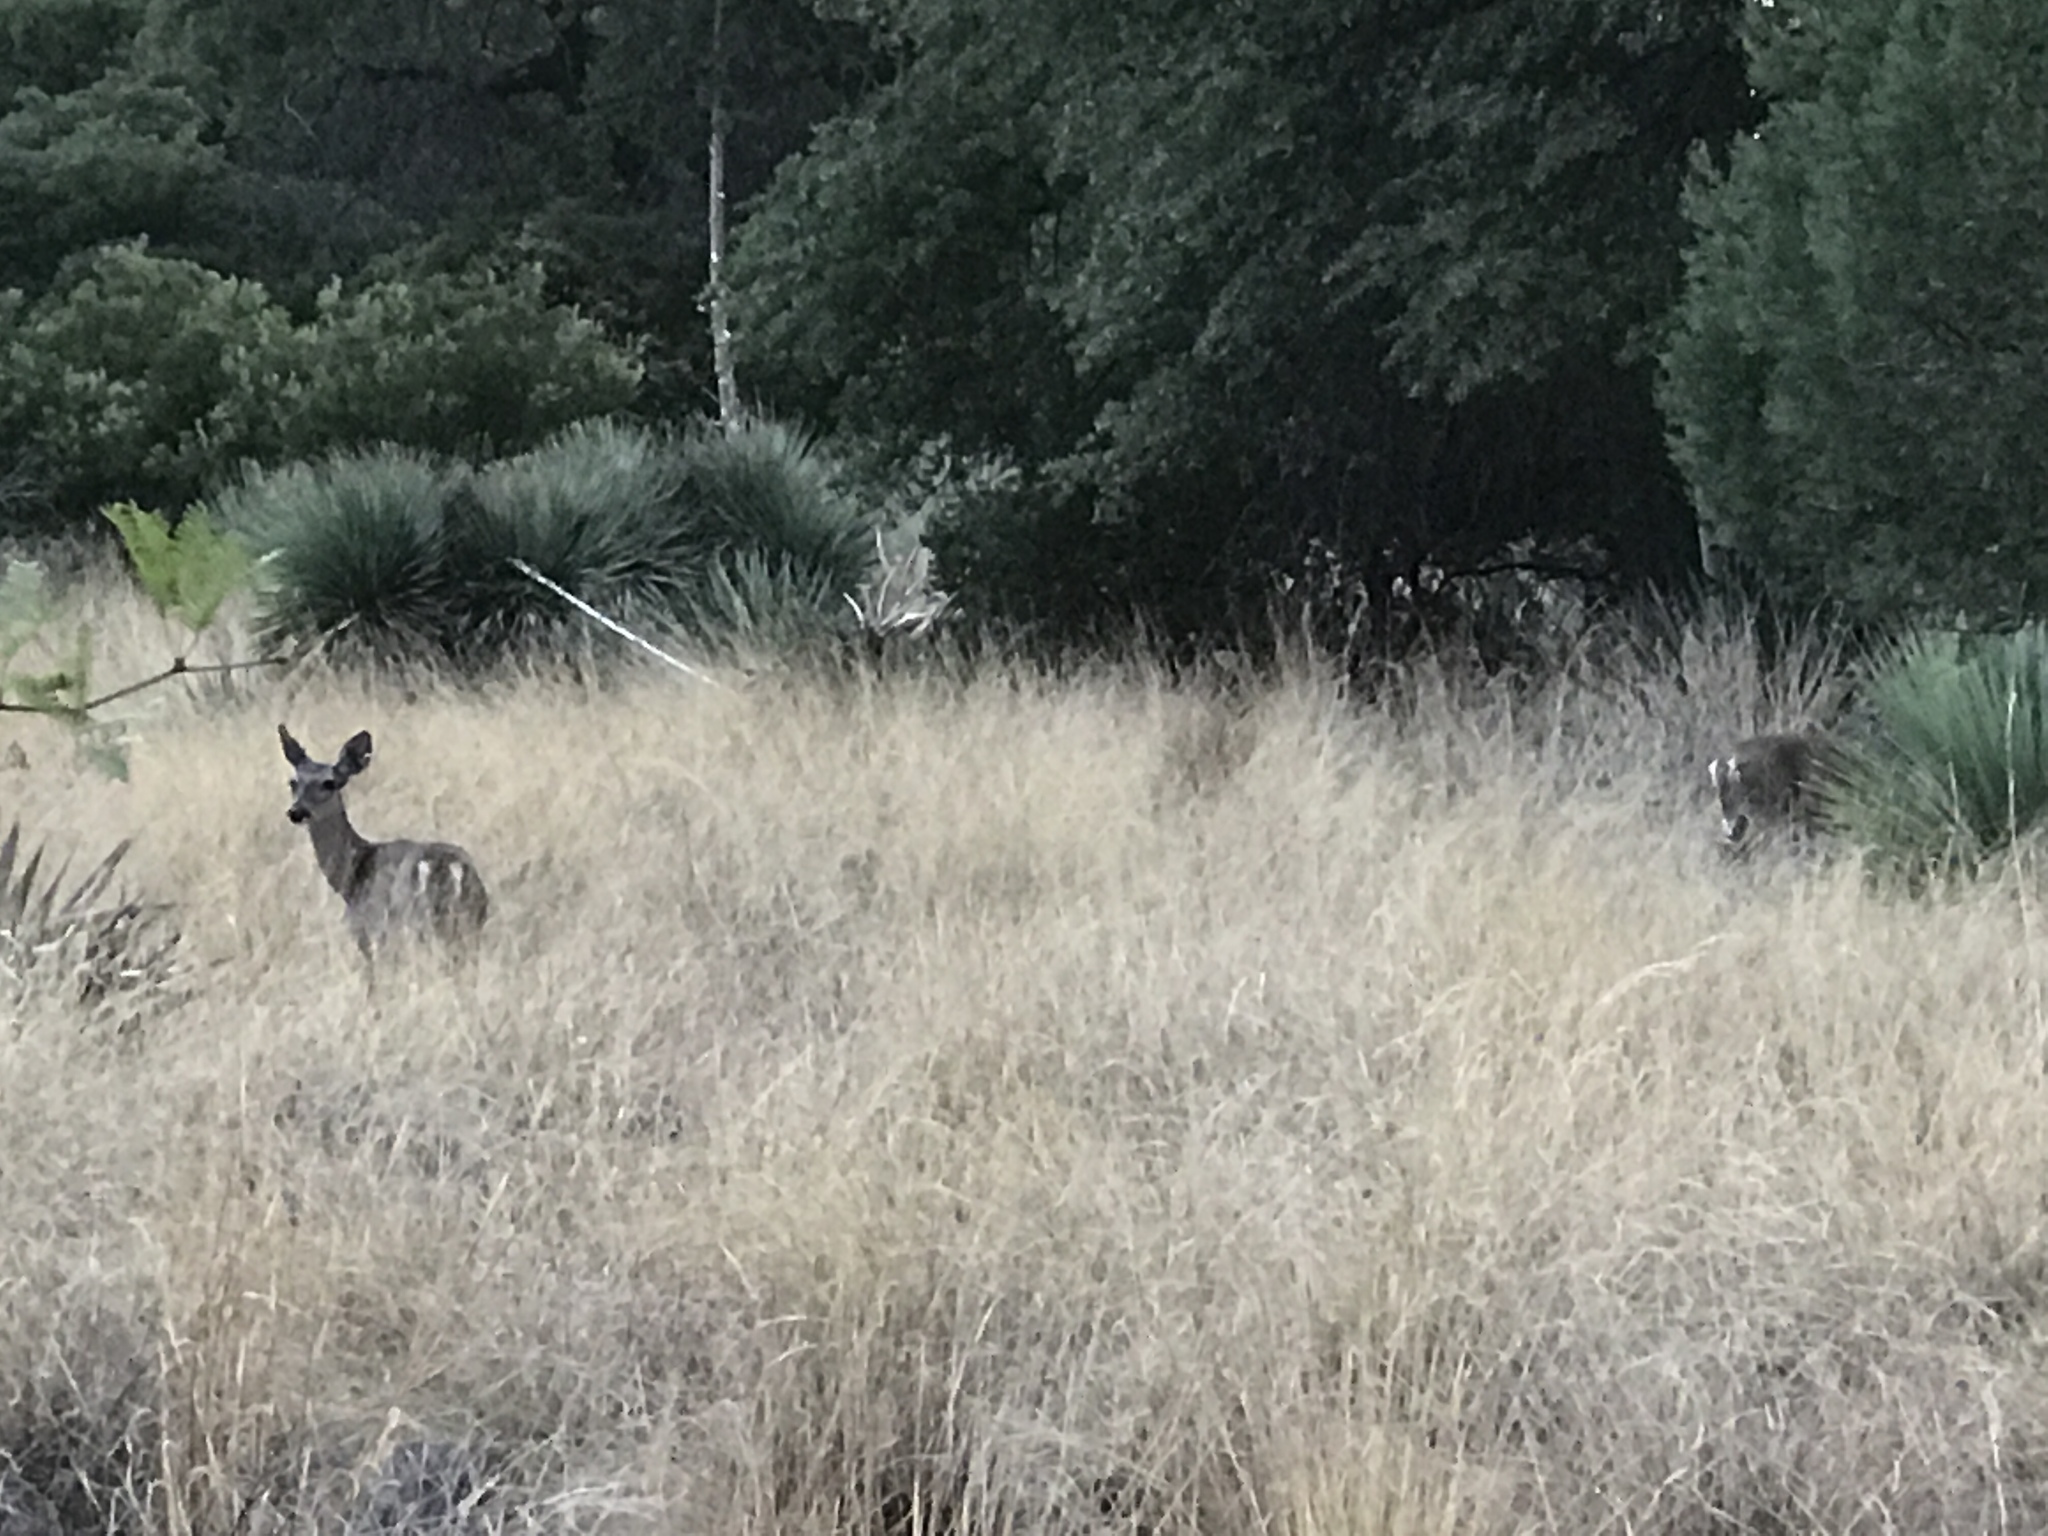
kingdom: Animalia
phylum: Chordata
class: Mammalia
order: Artiodactyla
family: Cervidae
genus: Odocoileus
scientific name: Odocoileus virginianus
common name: White-tailed deer
